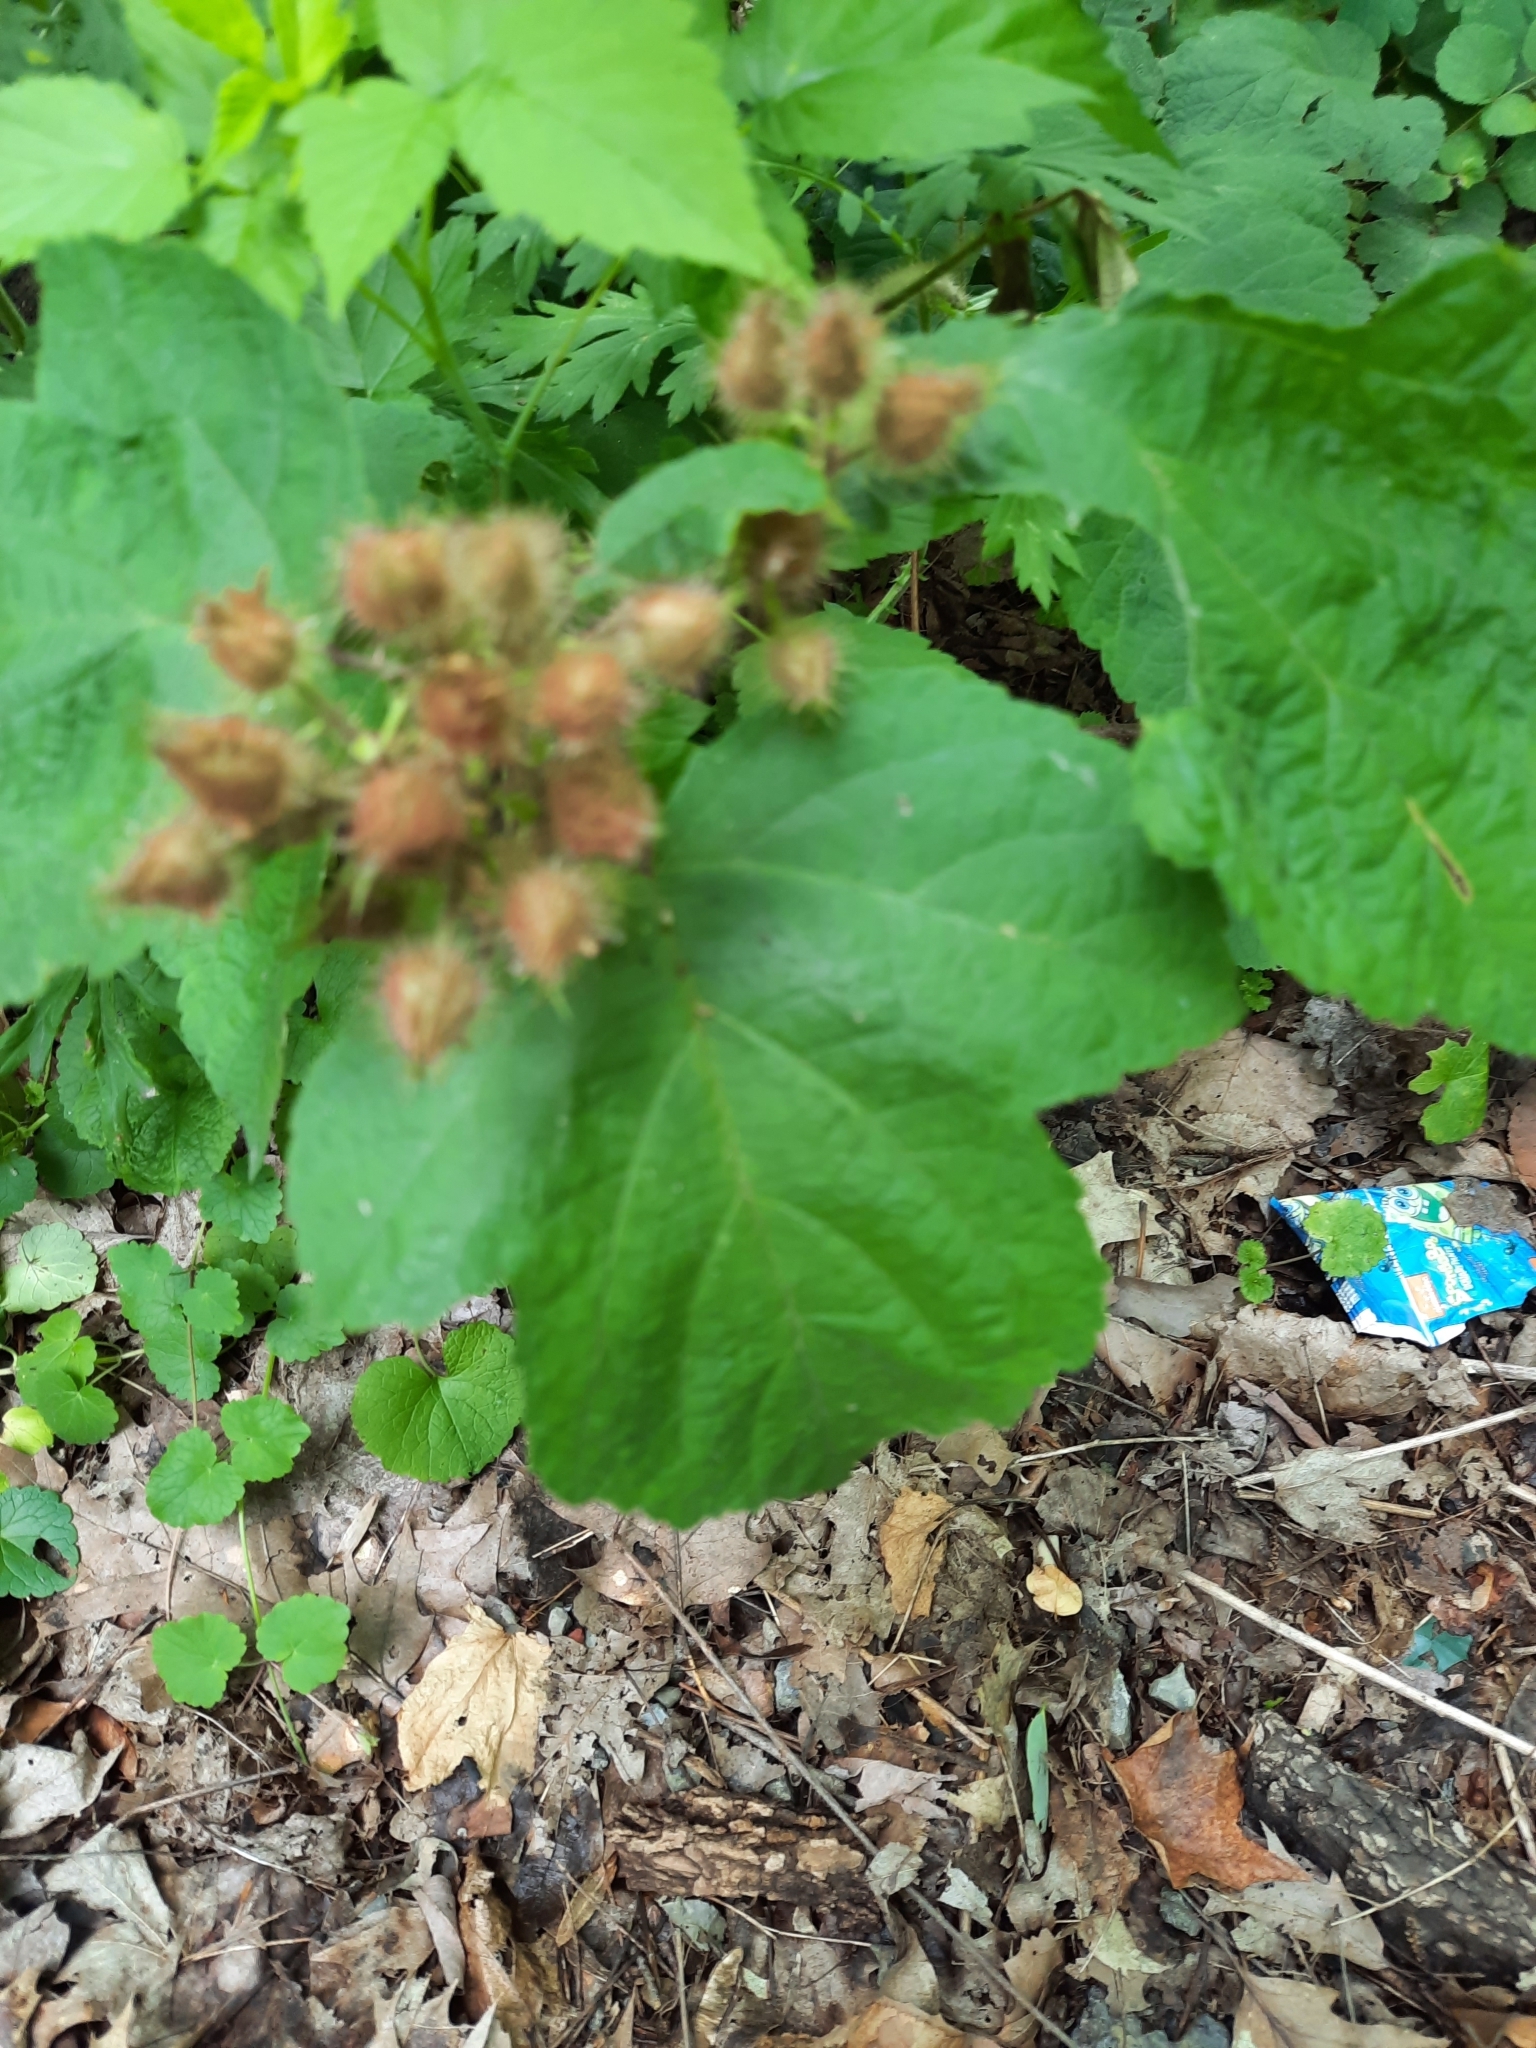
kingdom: Plantae
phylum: Tracheophyta
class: Magnoliopsida
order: Rosales
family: Rosaceae
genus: Rubus
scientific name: Rubus odoratus
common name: Purple-flowered raspberry
